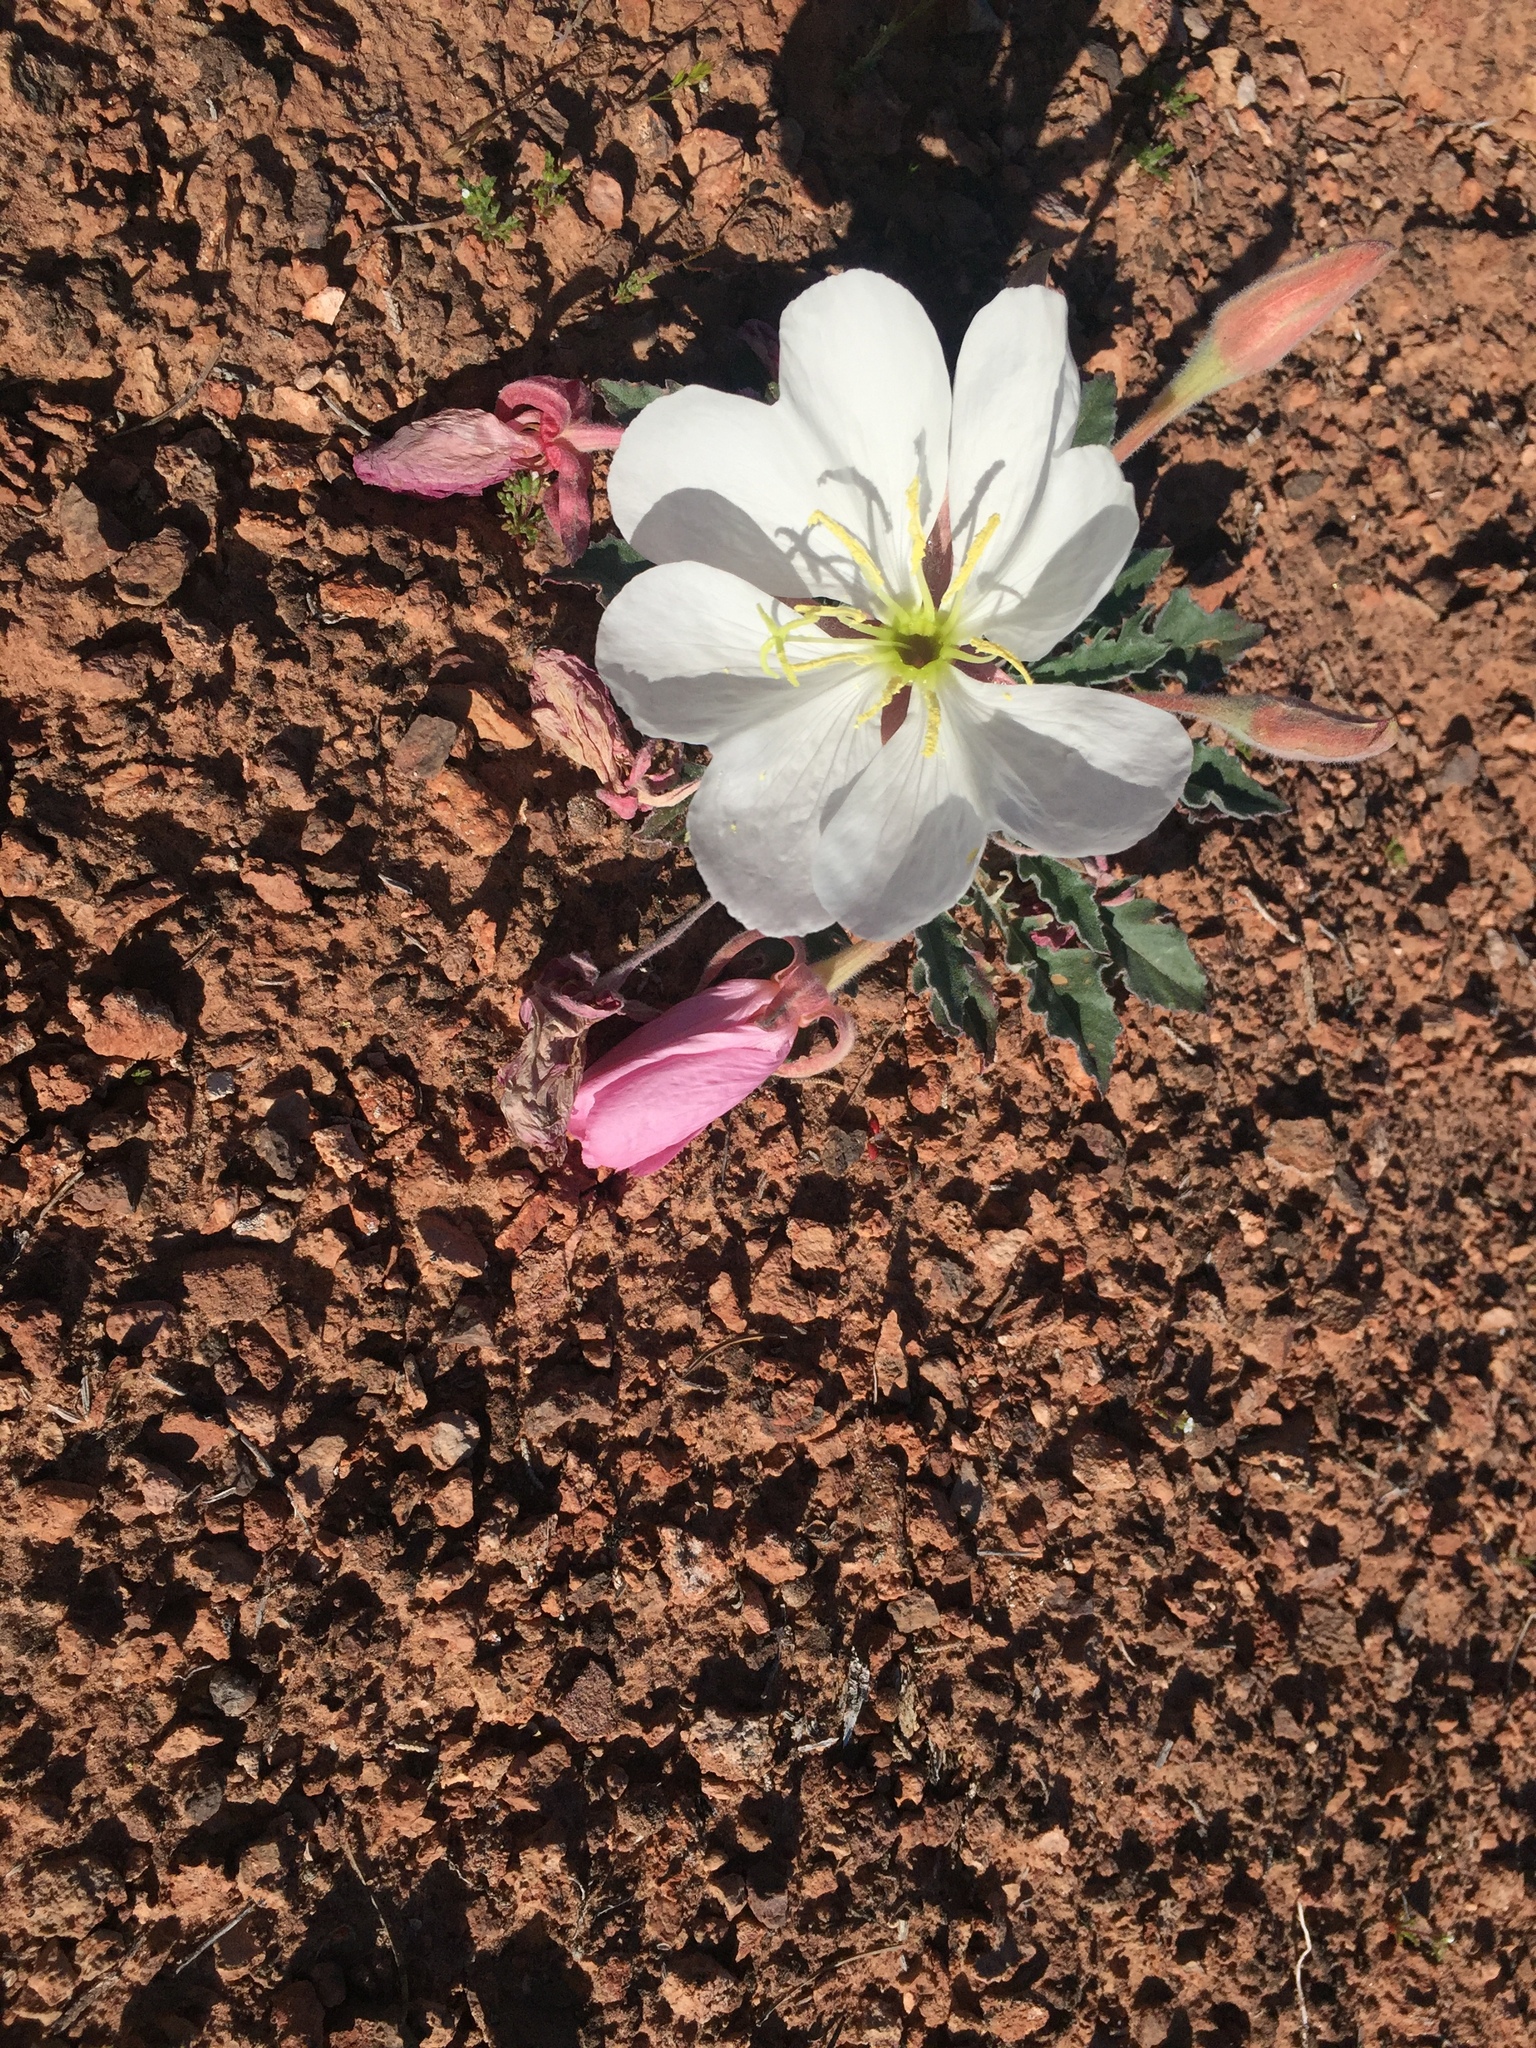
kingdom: Plantae
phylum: Tracheophyta
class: Magnoliopsida
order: Myrtales
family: Onagraceae
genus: Oenothera
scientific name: Oenothera cespitosa
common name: Tufted evening-primrose
